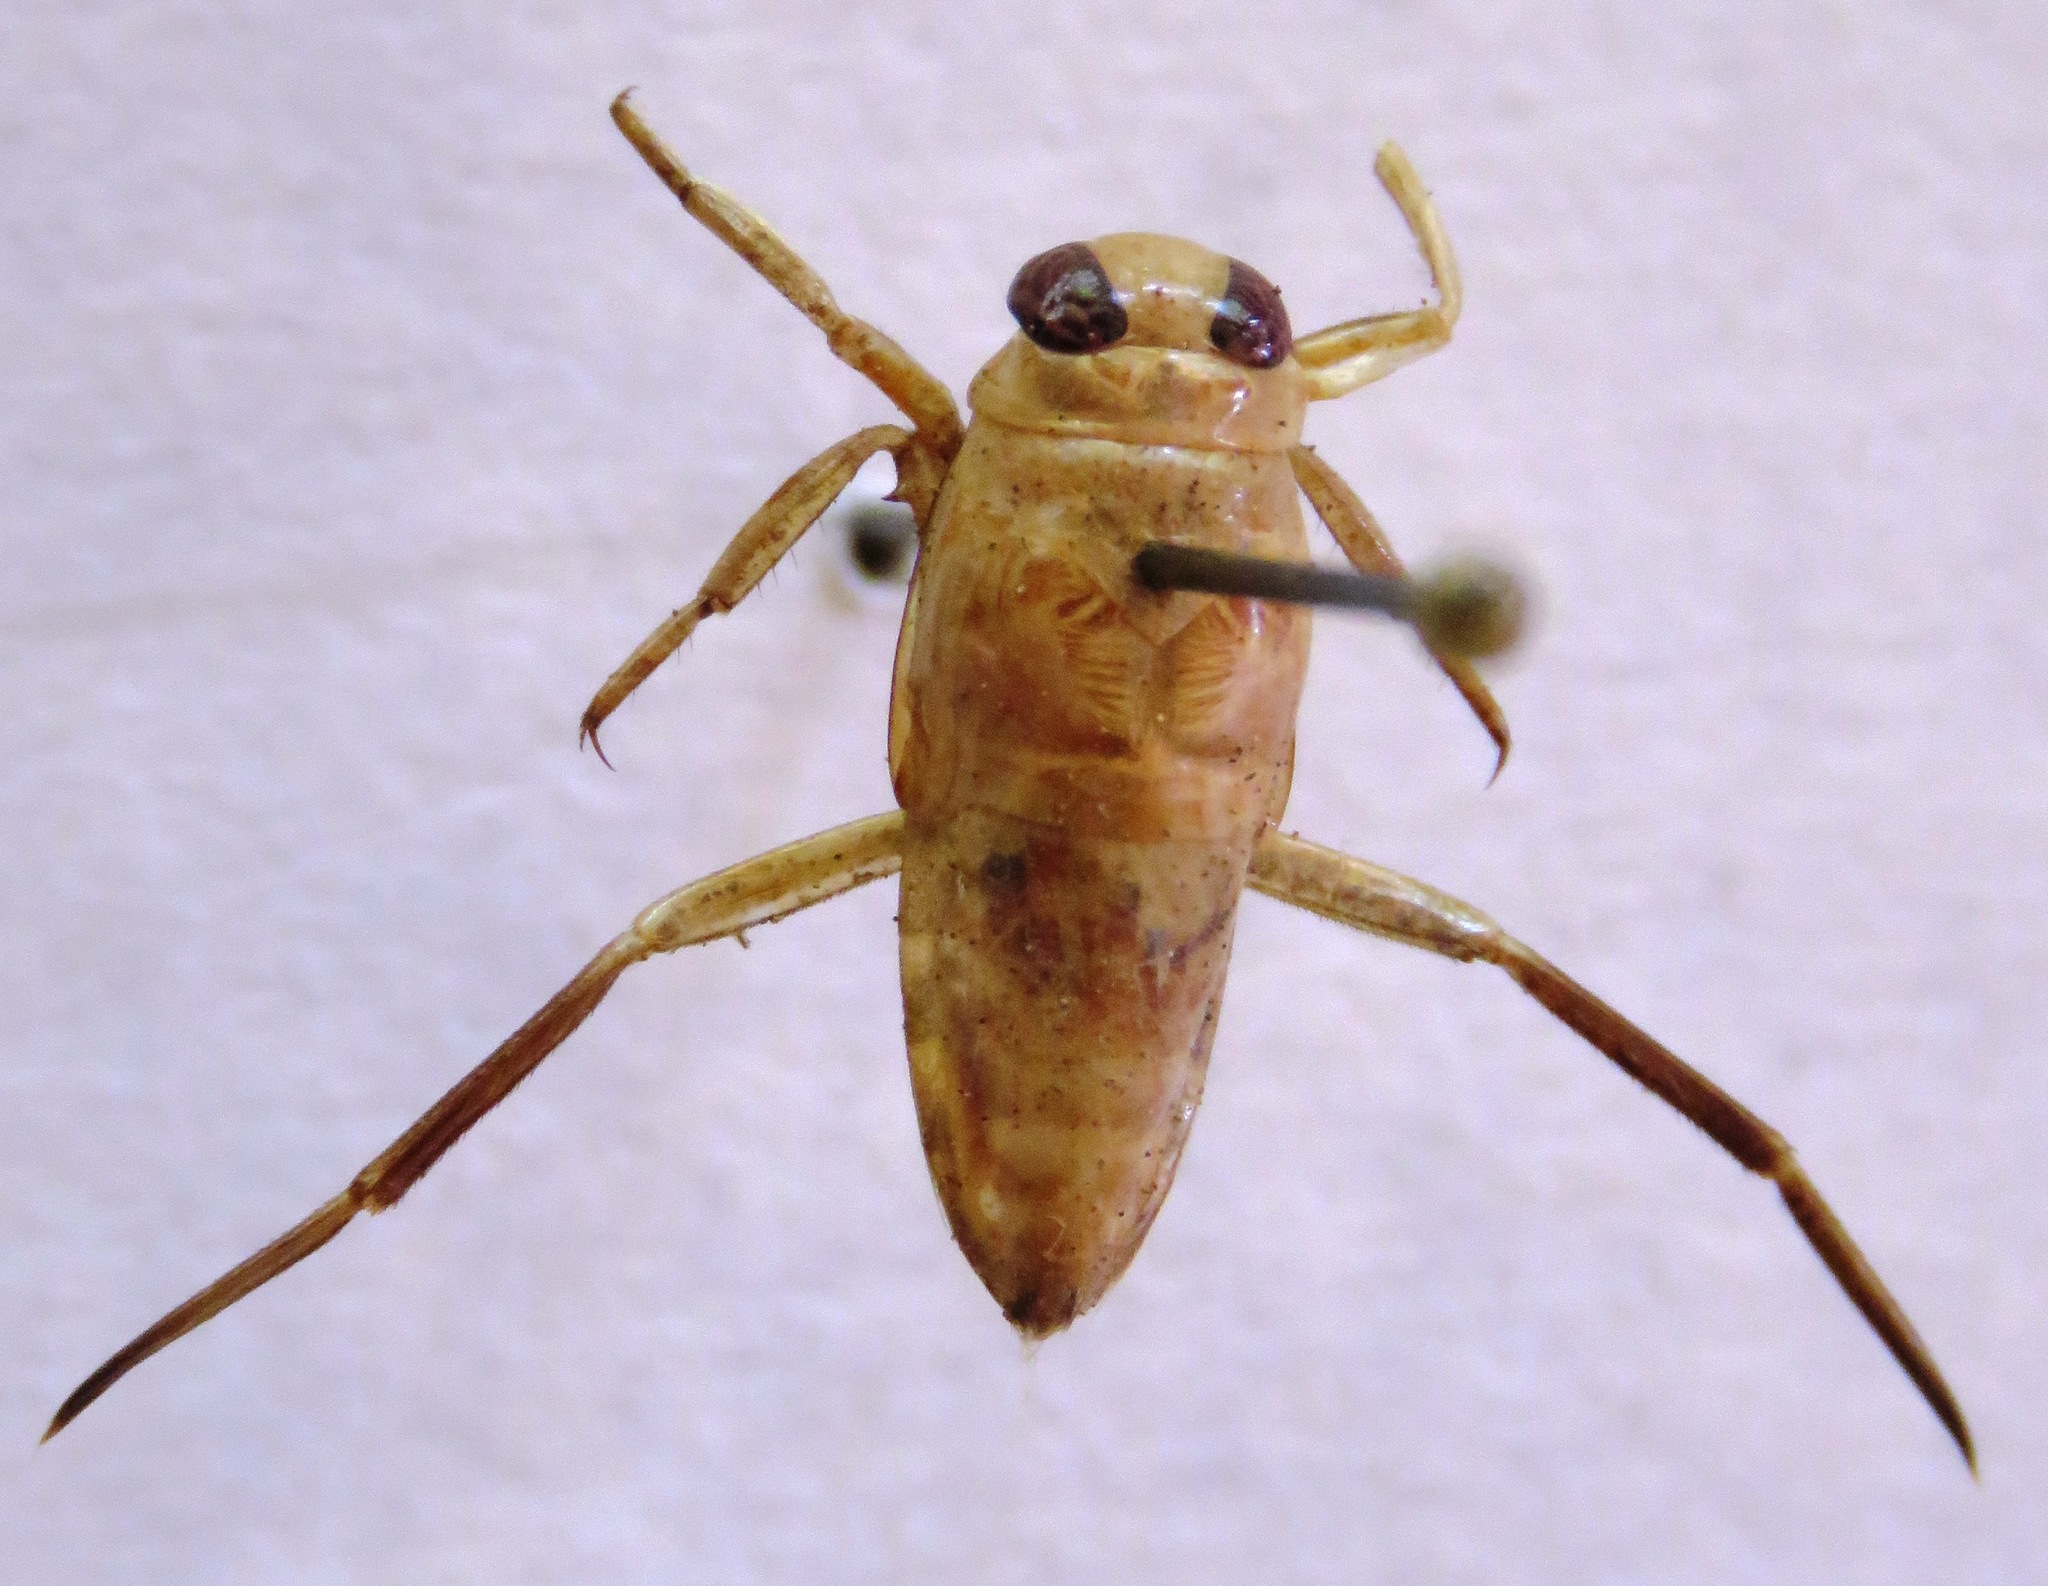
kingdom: Animalia
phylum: Arthropoda
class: Insecta
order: Hemiptera
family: Notonectidae
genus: Notonecta
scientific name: Notonecta
